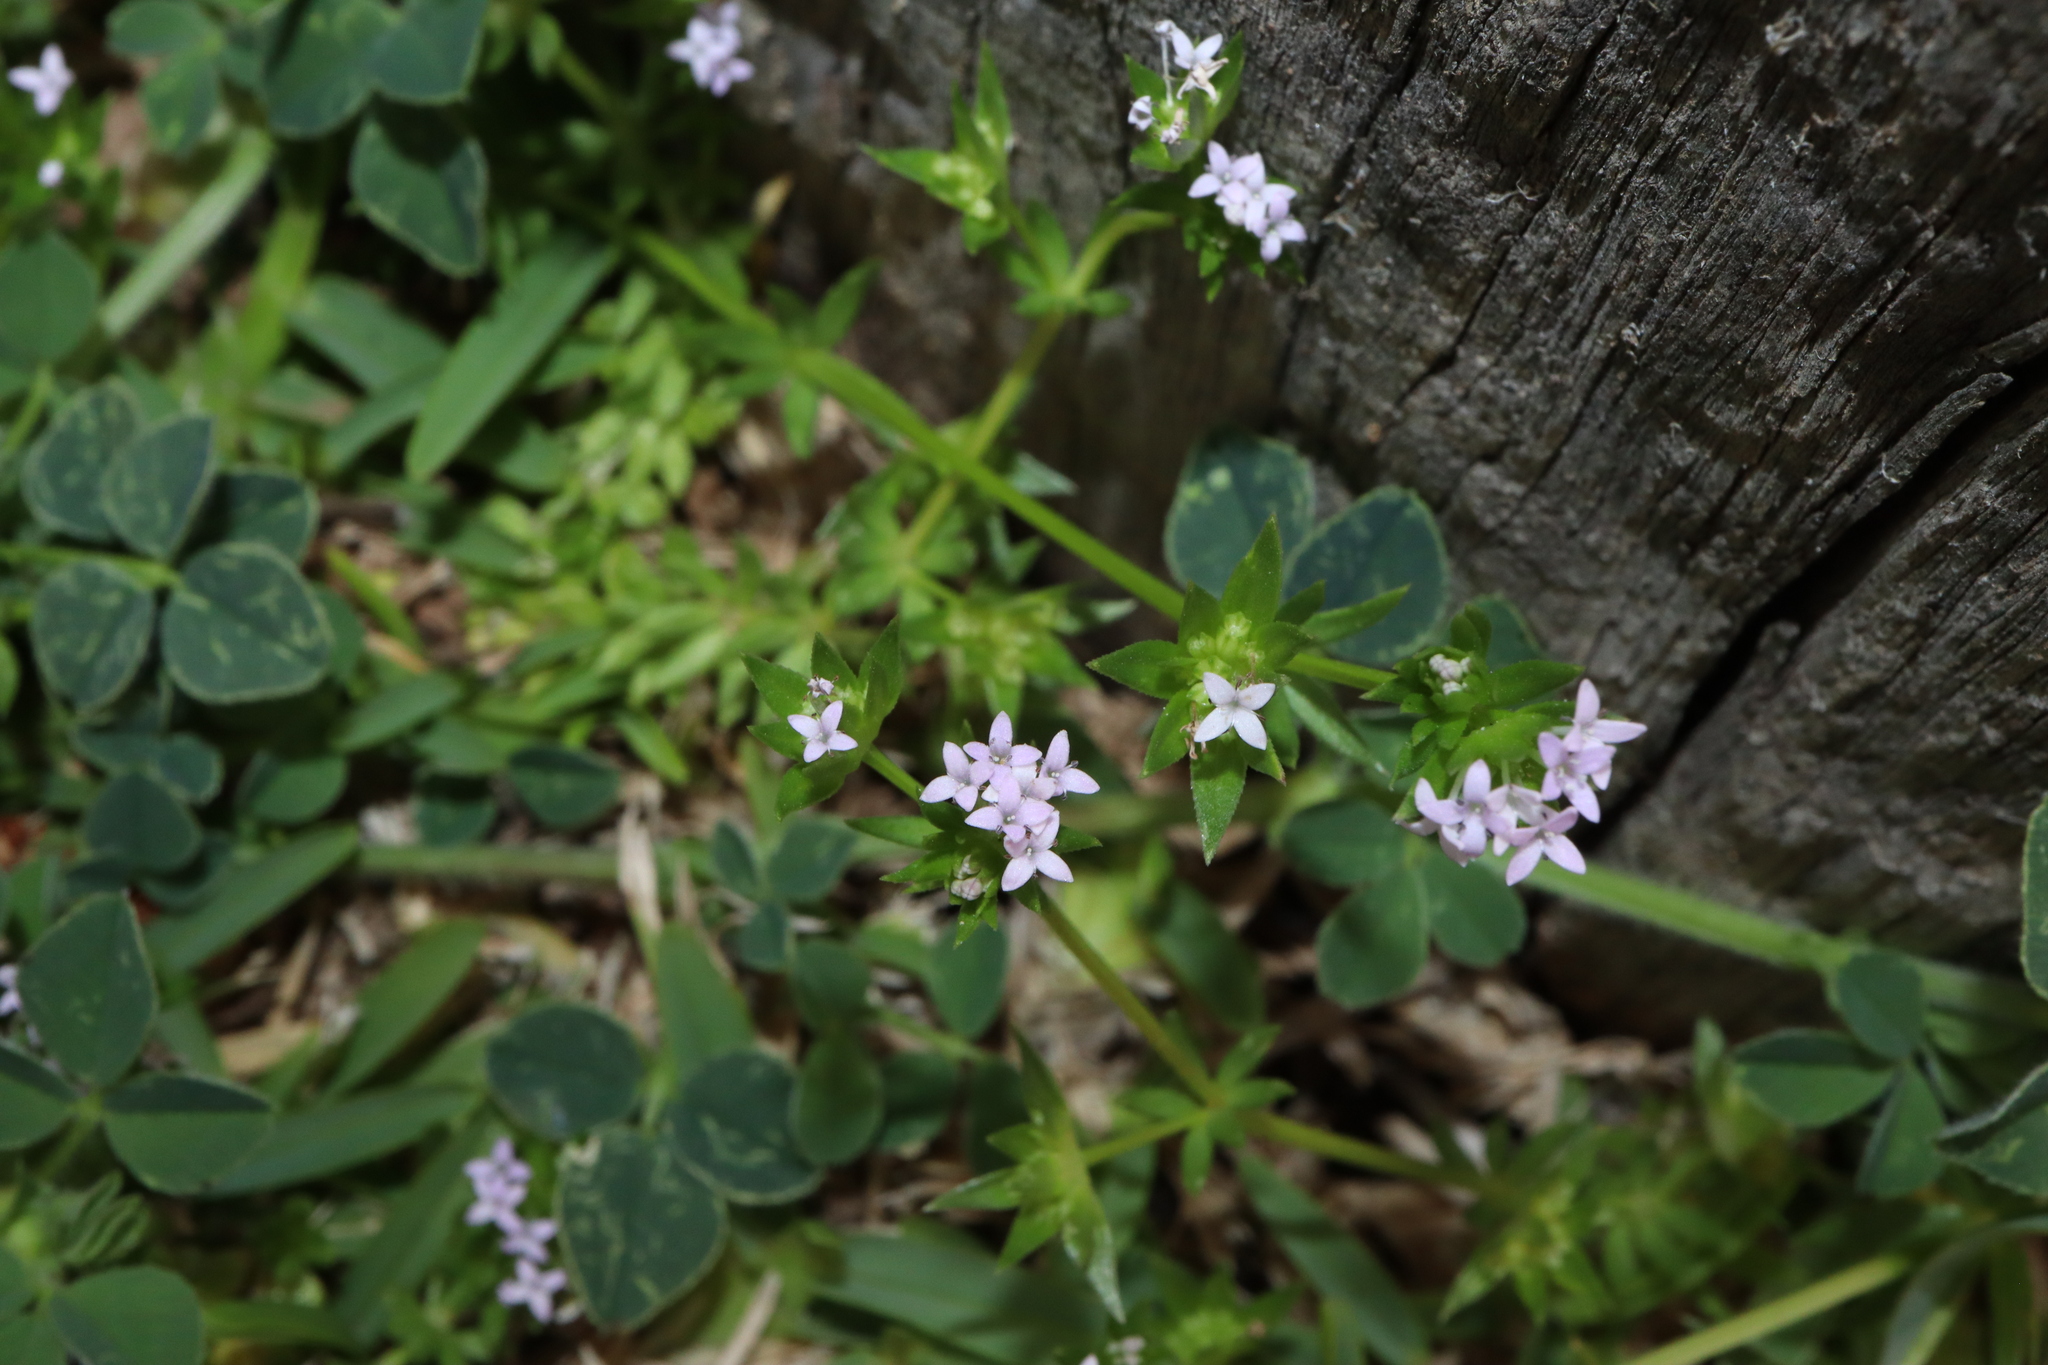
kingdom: Plantae
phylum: Tracheophyta
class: Magnoliopsida
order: Gentianales
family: Rubiaceae
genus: Sherardia
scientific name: Sherardia arvensis
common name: Field madder
